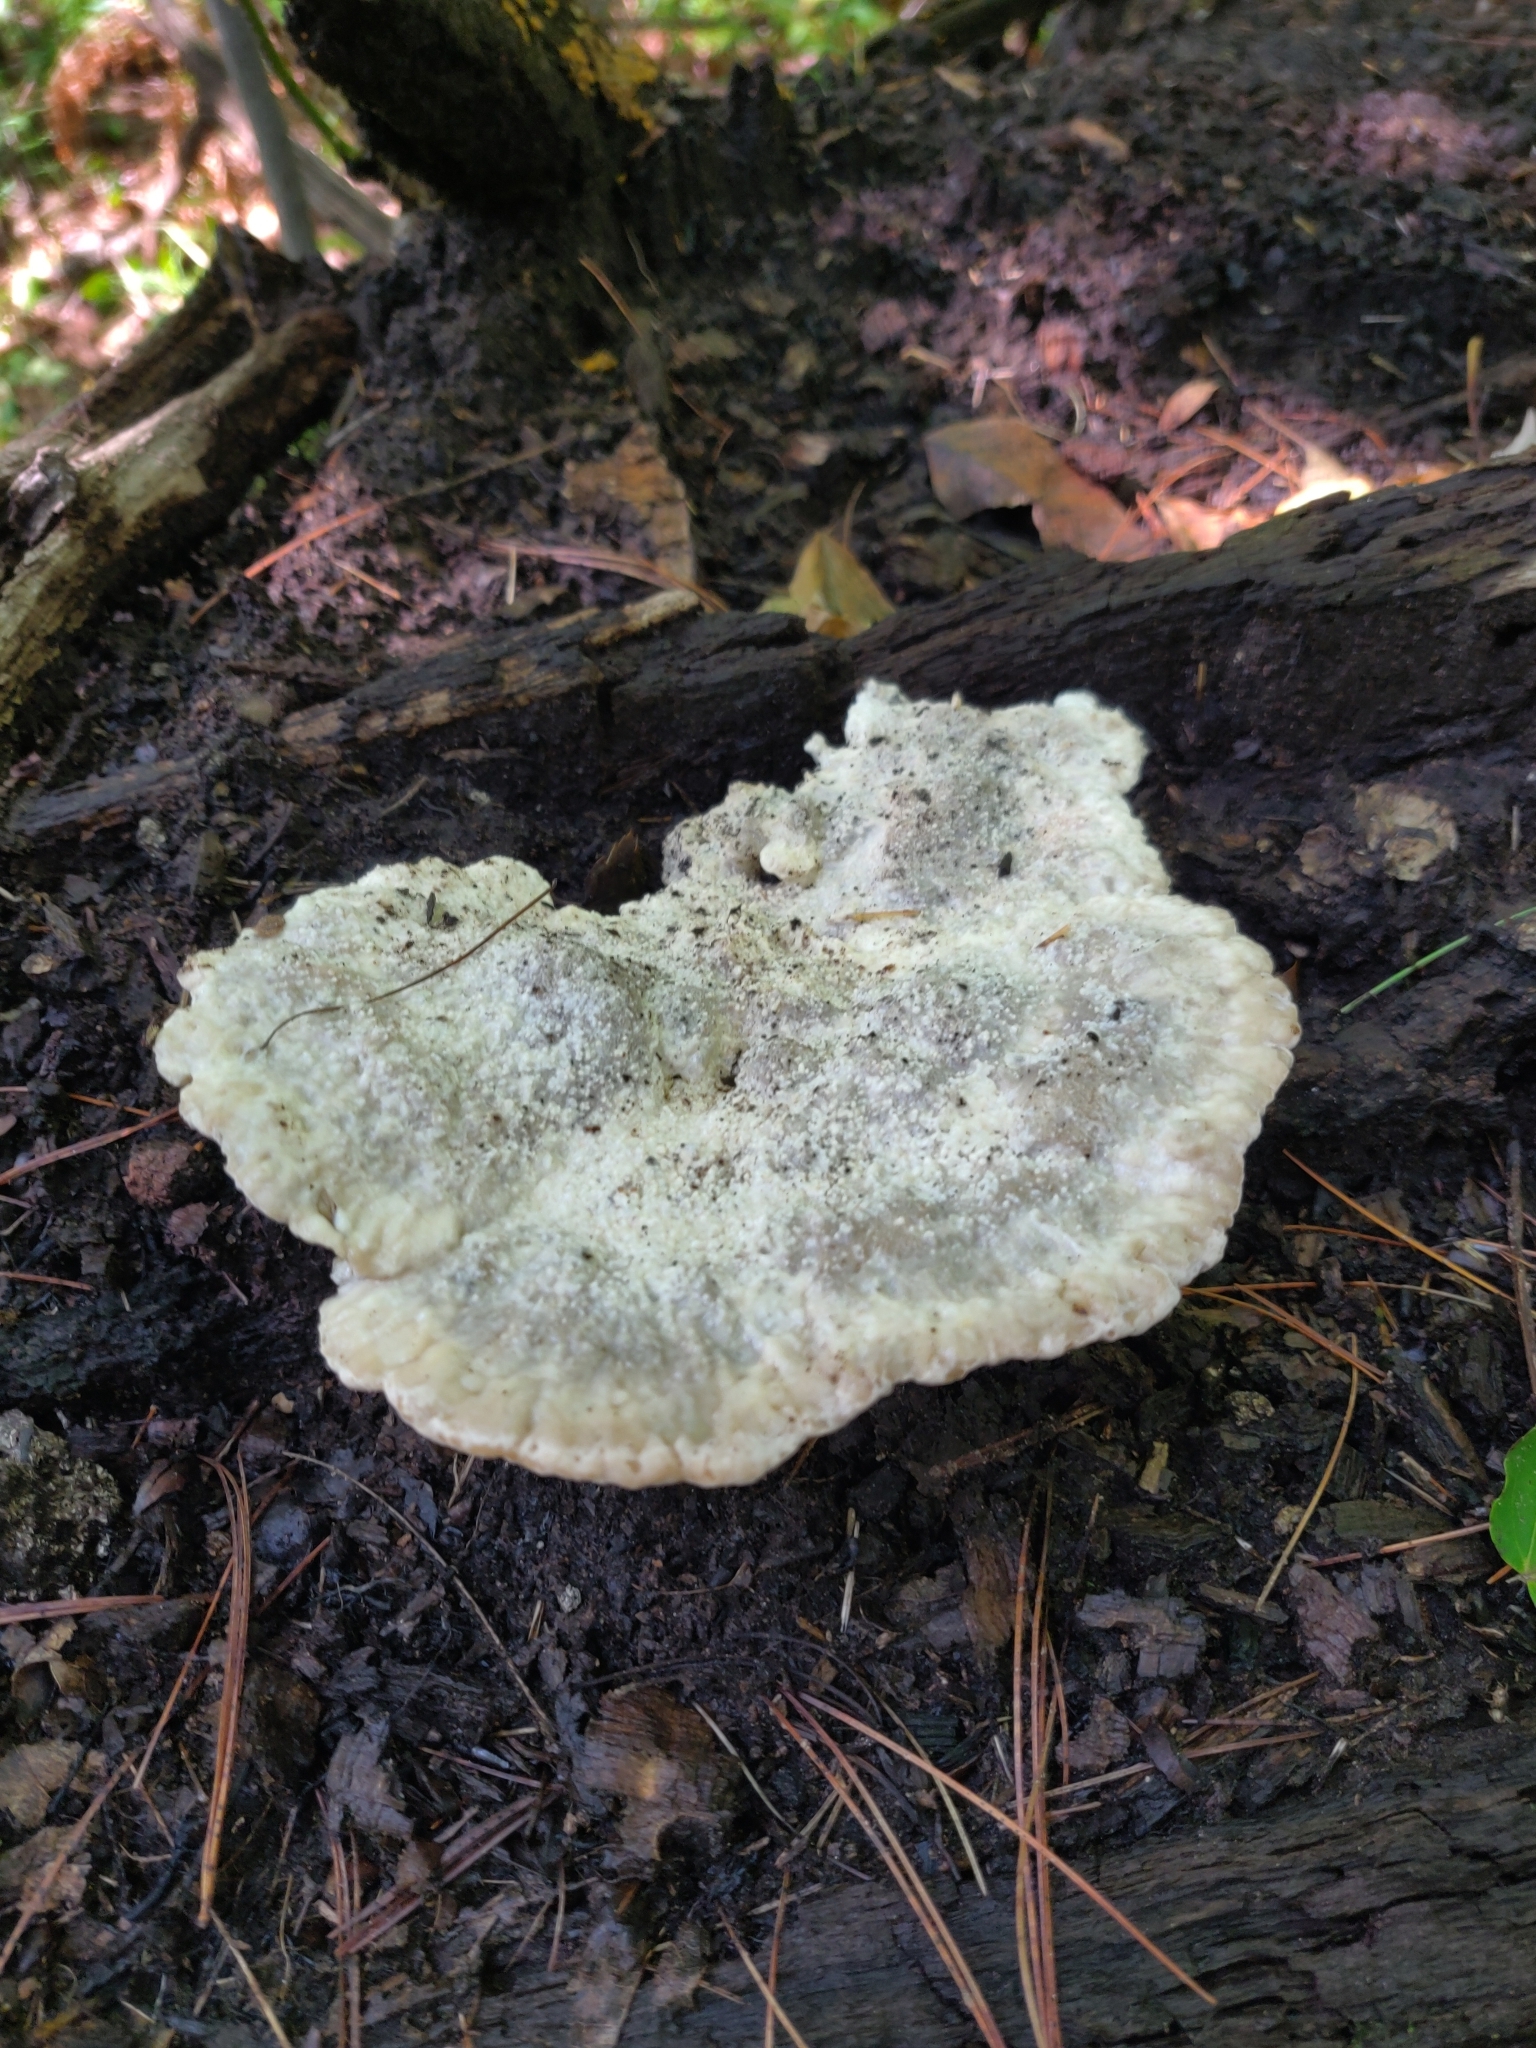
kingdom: Fungi
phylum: Basidiomycota
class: Agaricomycetes
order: Polyporales
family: Fomitopsidaceae
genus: Niveoporofomes
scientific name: Niveoporofomes spraguei
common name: Green cheese polypore
